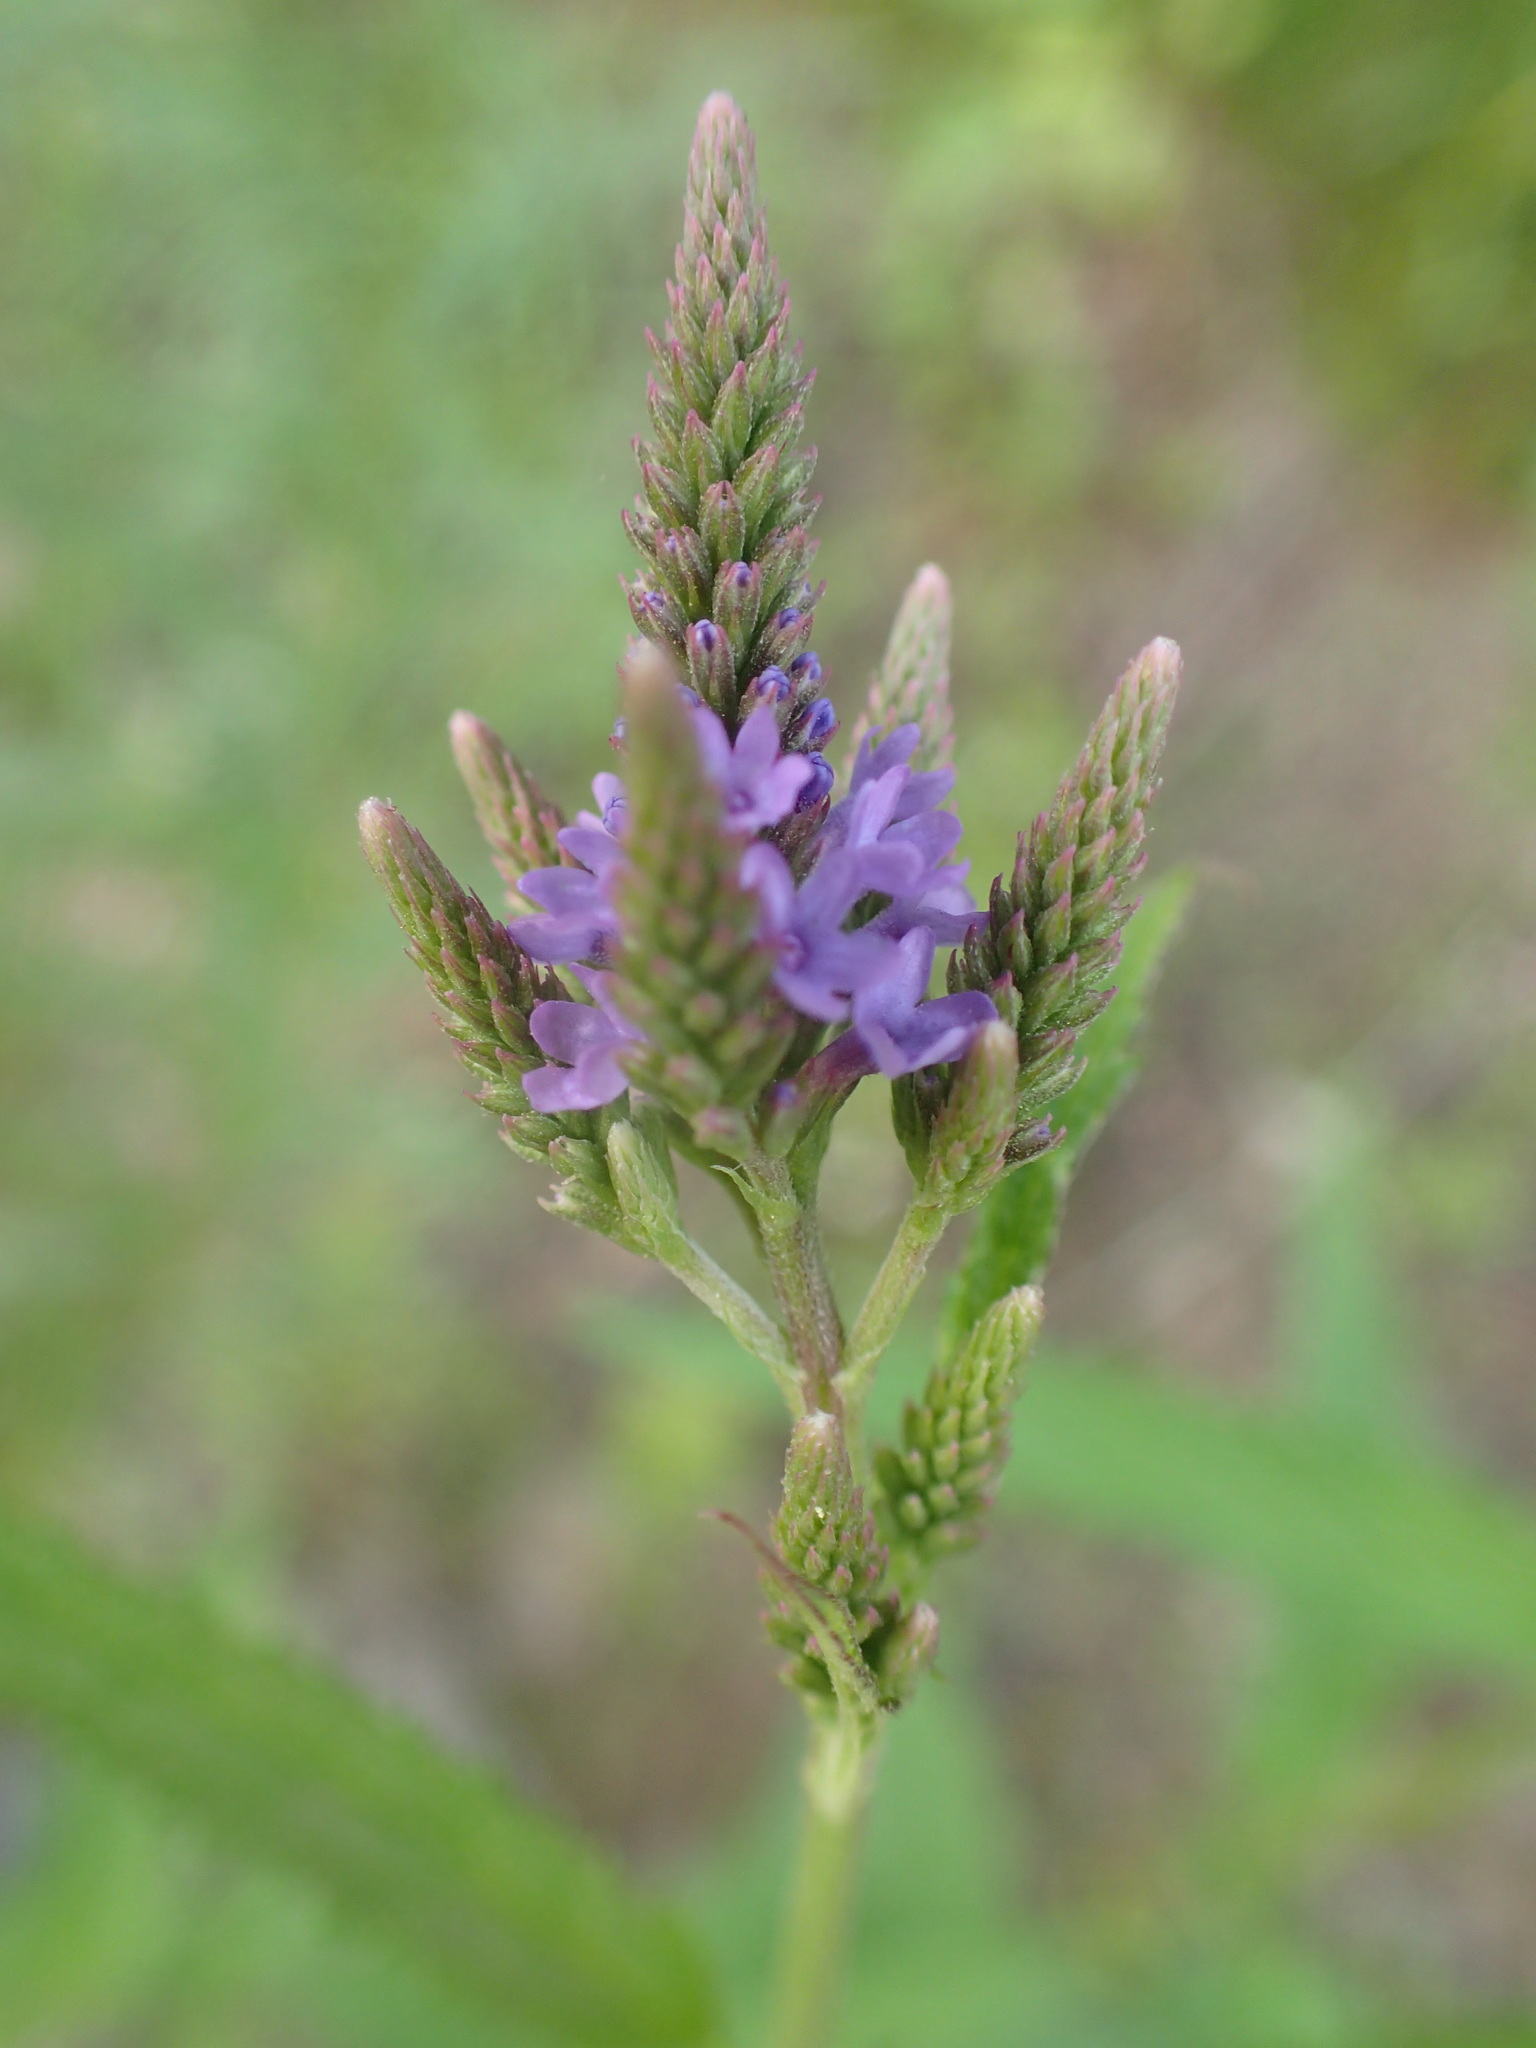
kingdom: Plantae
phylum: Tracheophyta
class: Magnoliopsida
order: Lamiales
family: Verbenaceae
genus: Verbena
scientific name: Verbena hastata
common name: American blue vervain
